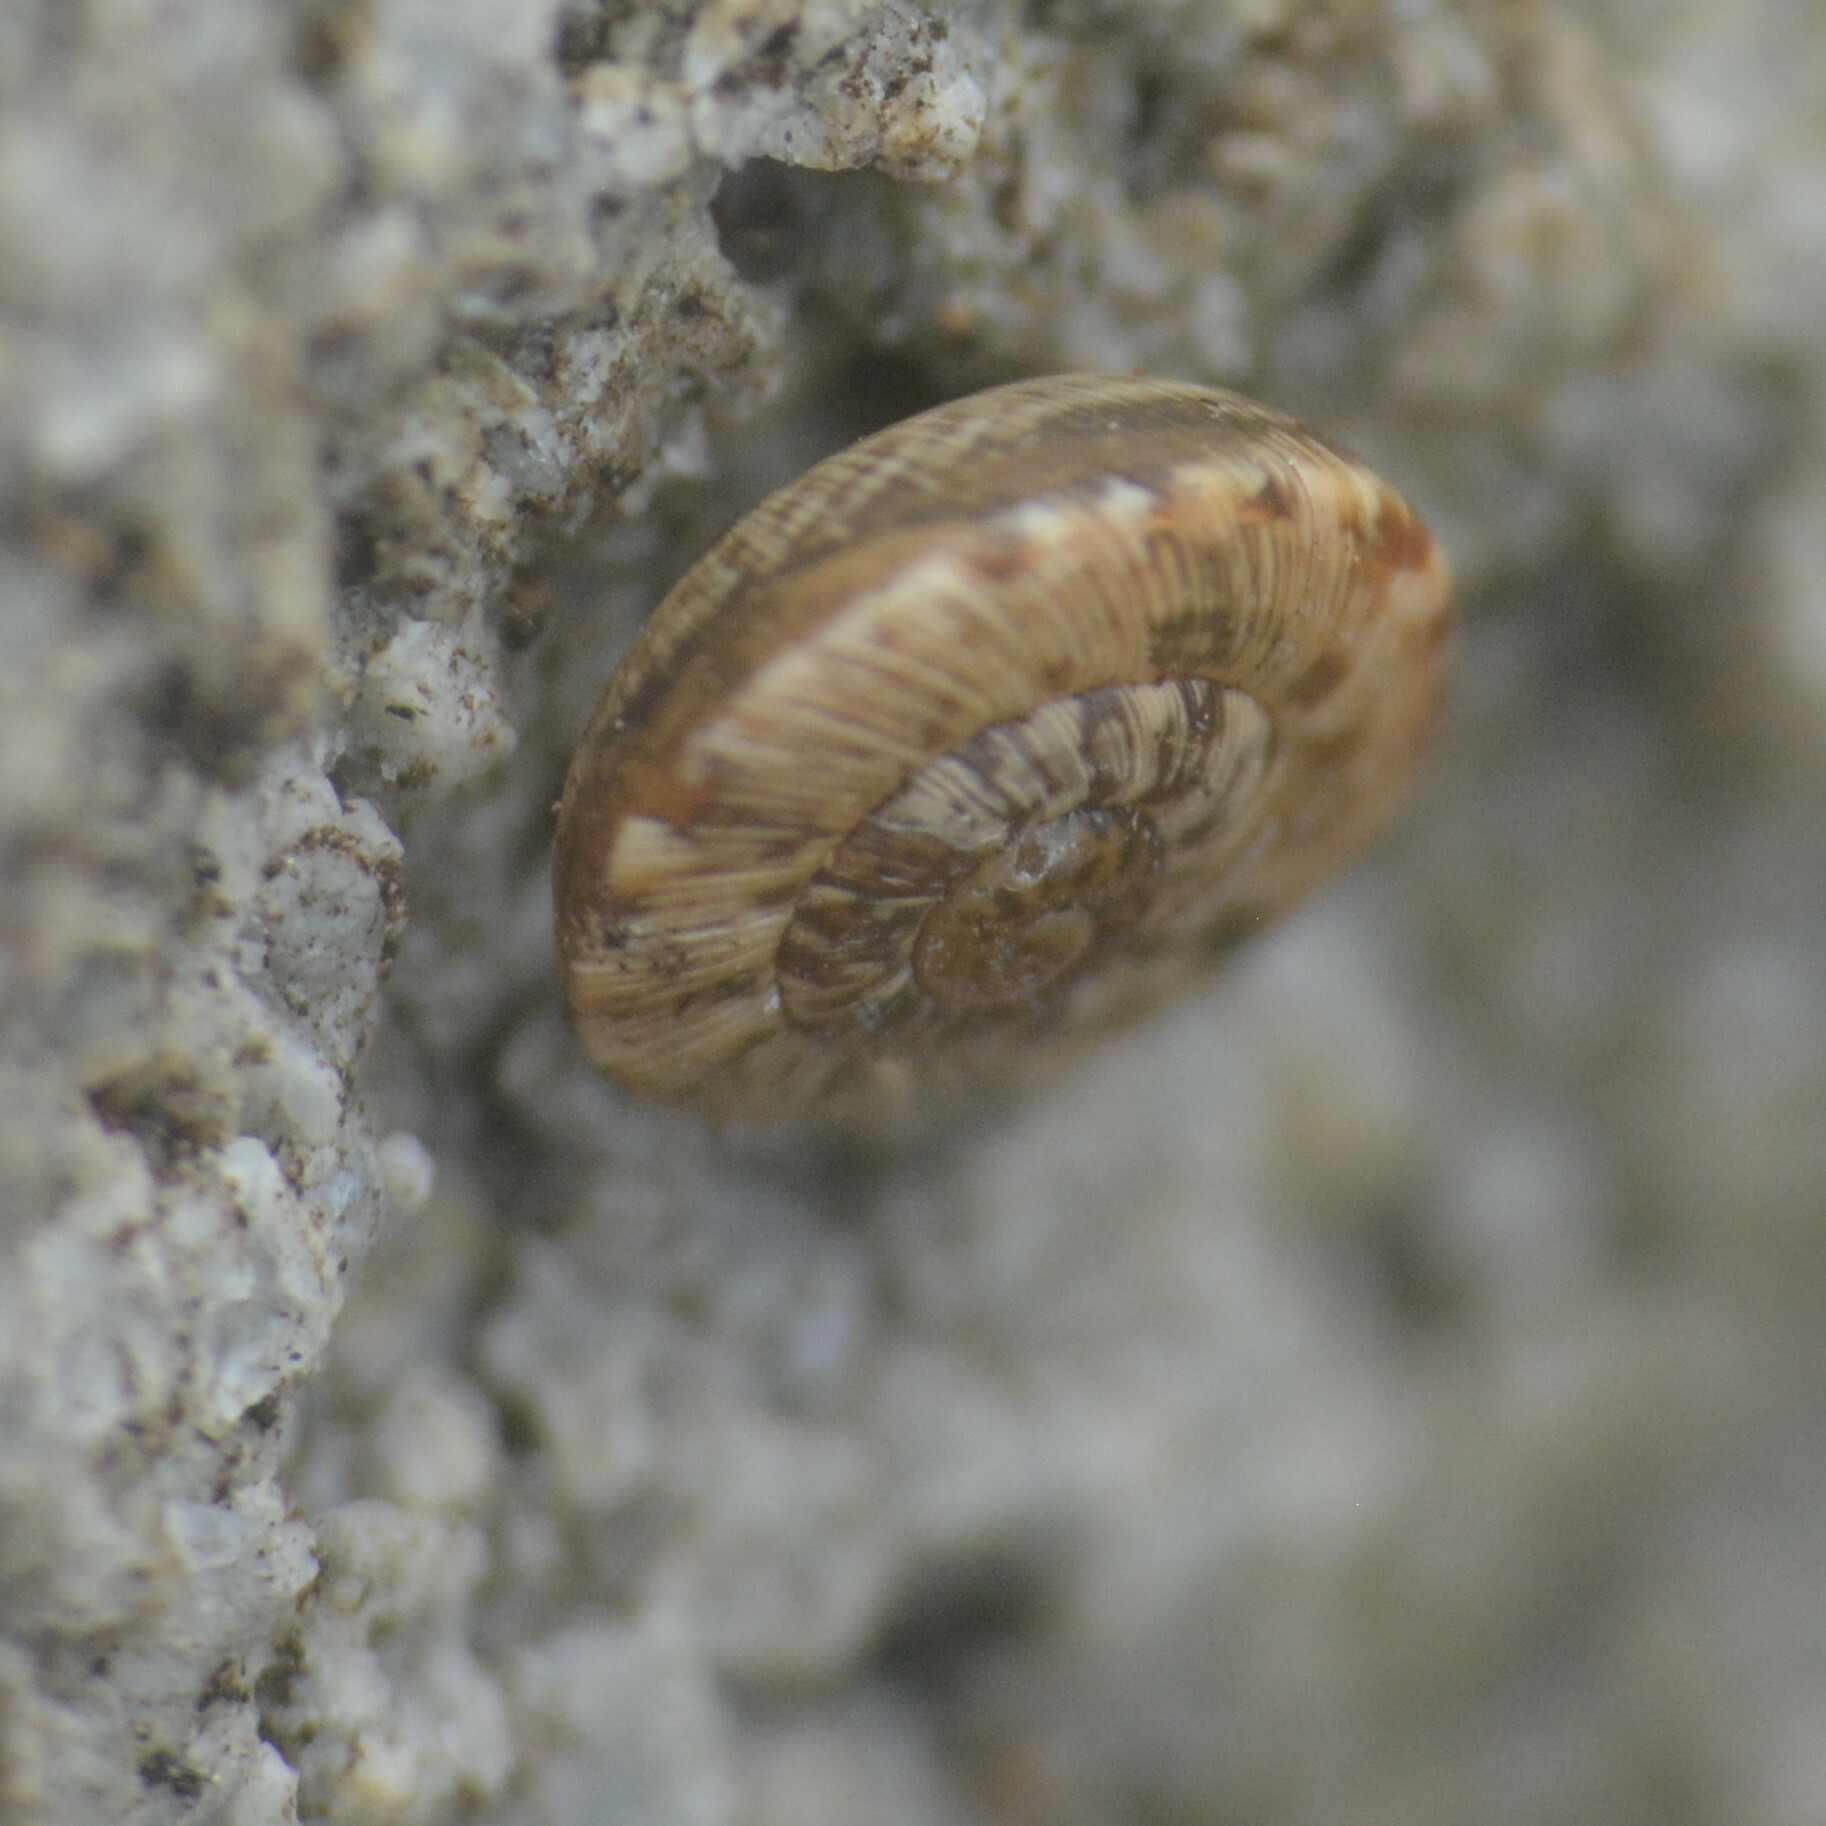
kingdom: Animalia
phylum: Mollusca
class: Gastropoda
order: Stylommatophora
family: Geomitridae
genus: Xeroplexa
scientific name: Xeroplexa intersecta
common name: Wrinkled snail
